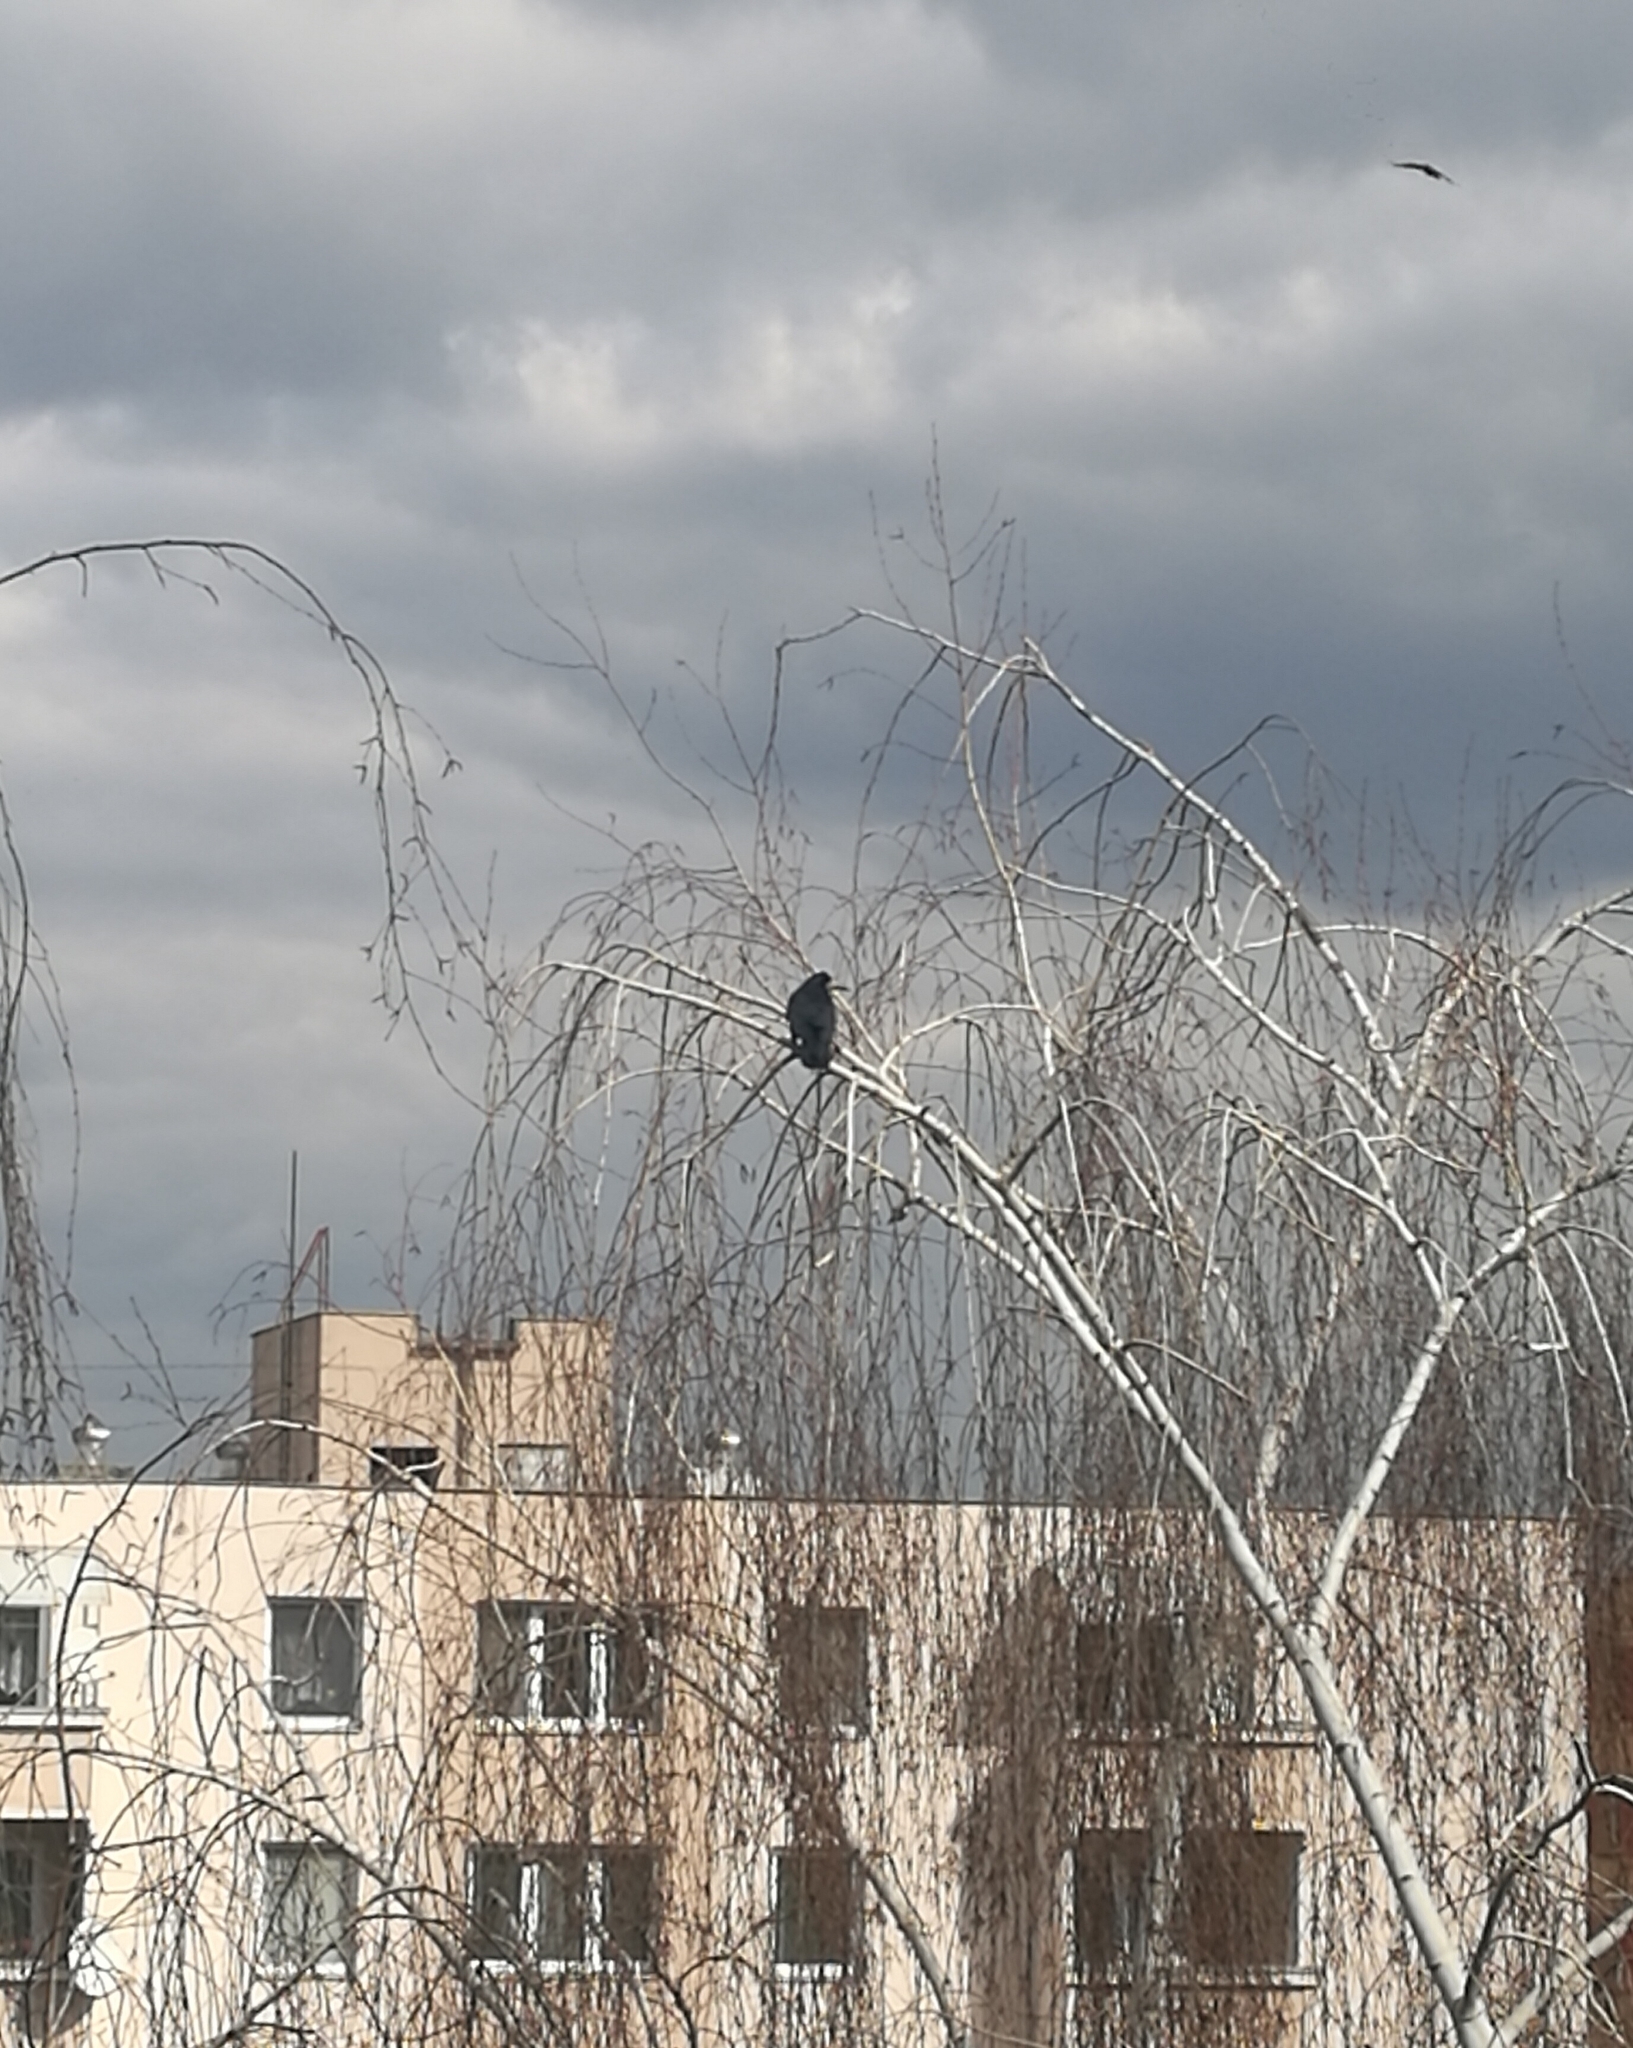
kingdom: Animalia
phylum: Chordata
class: Aves
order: Passeriformes
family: Corvidae
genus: Corvus
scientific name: Corvus frugilegus
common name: Rook
